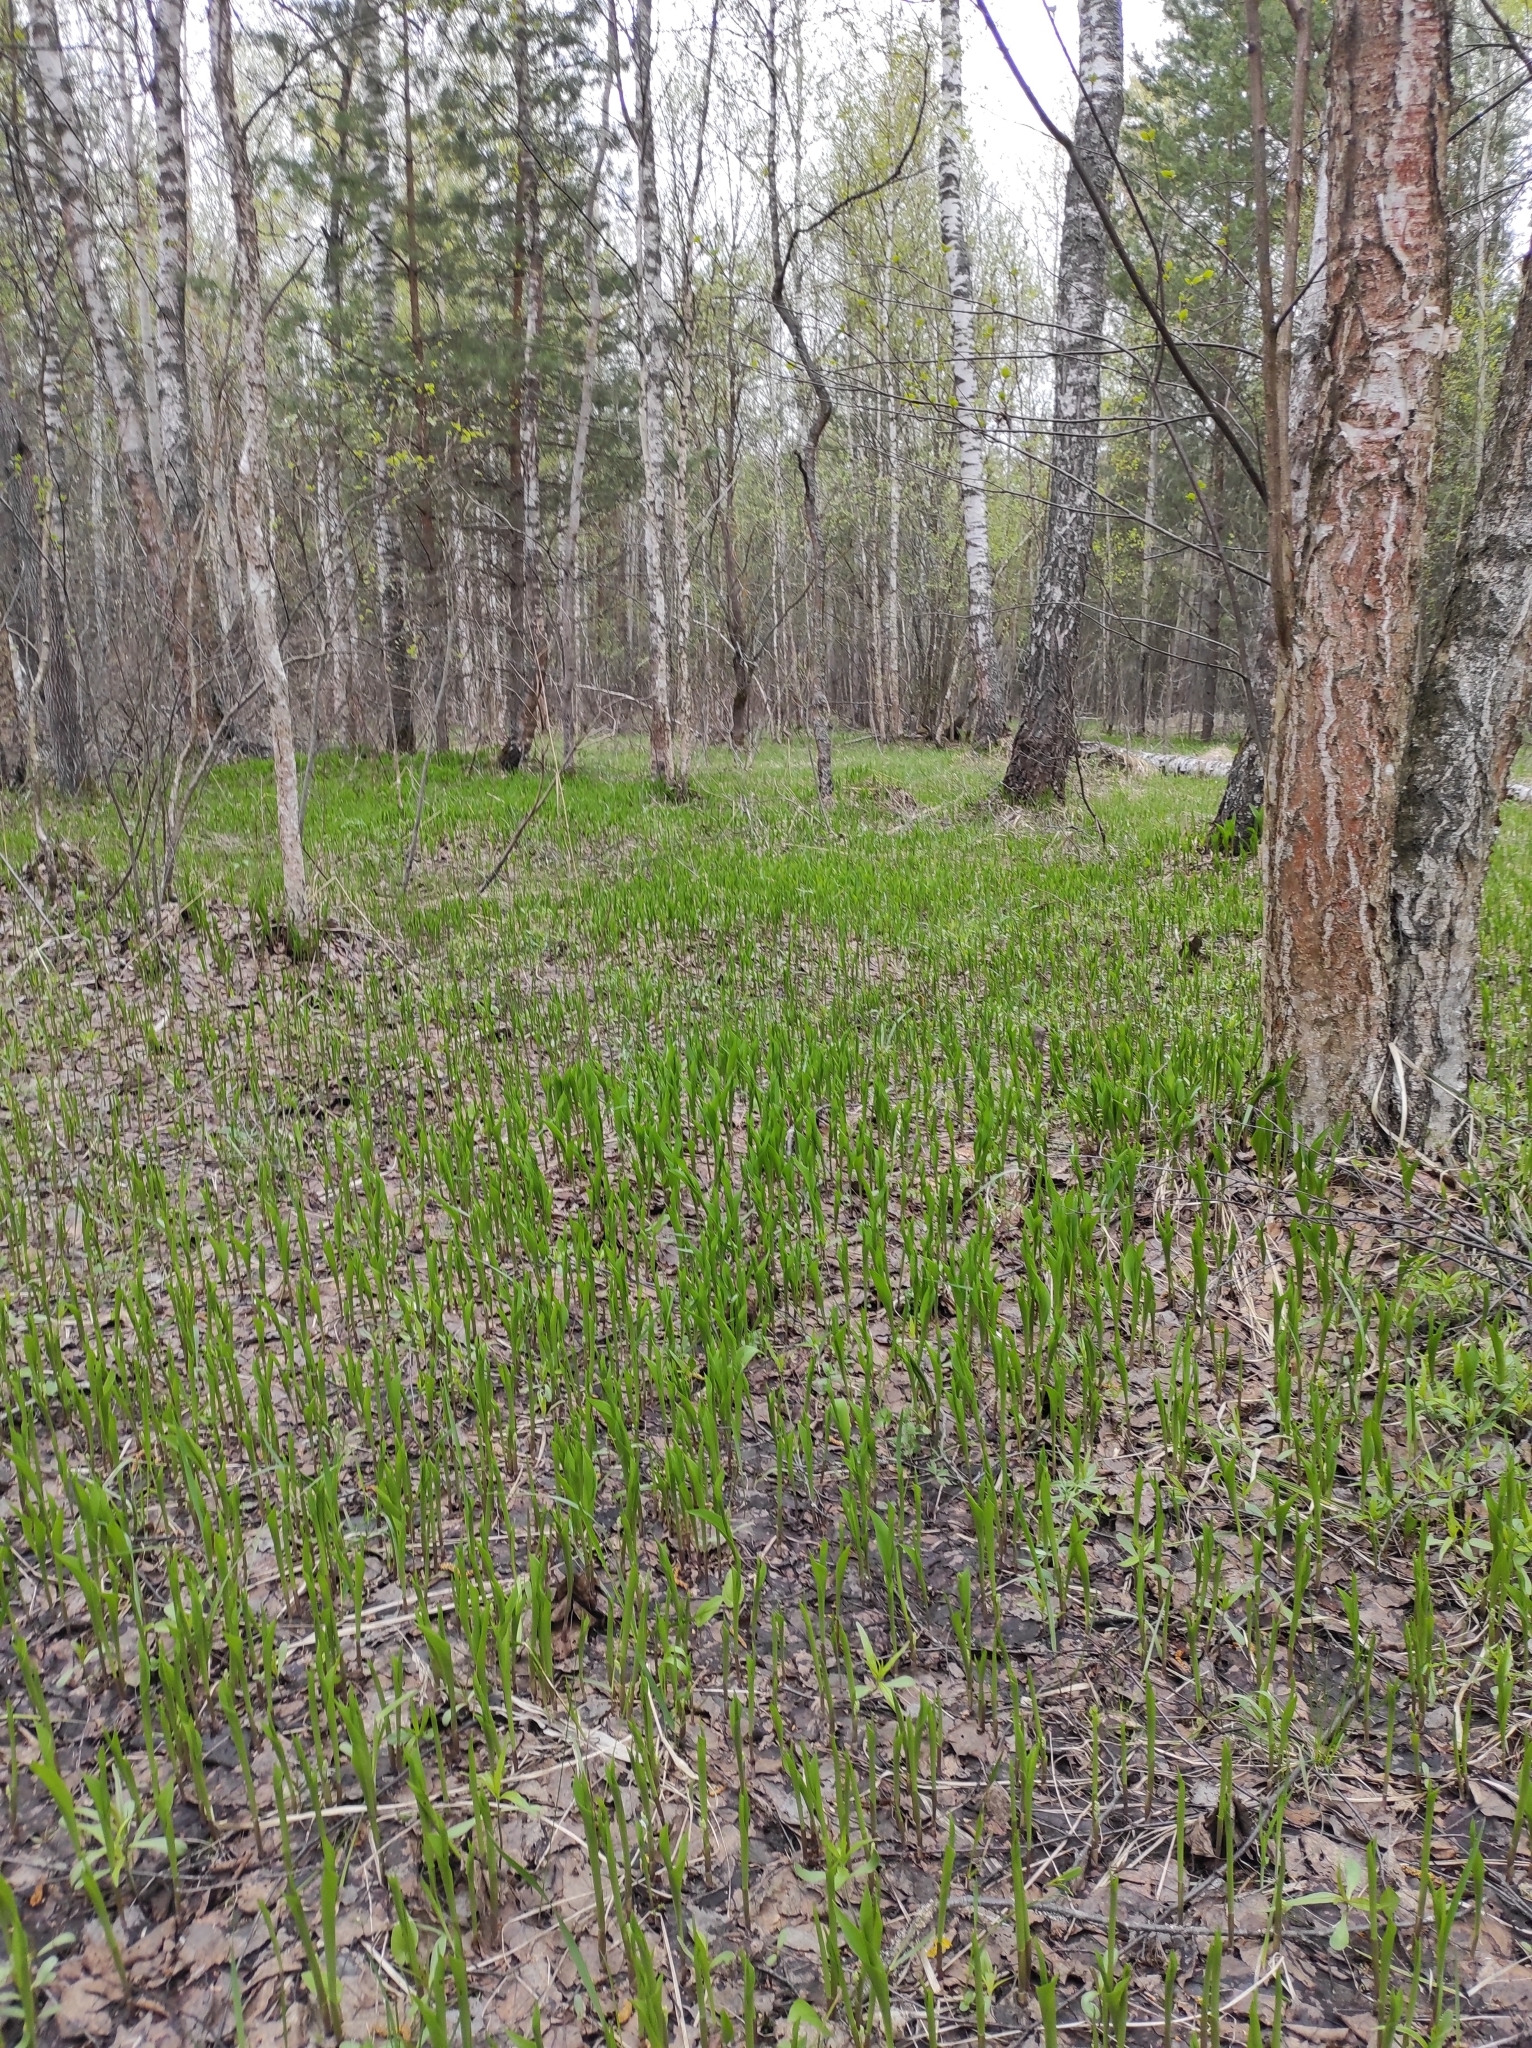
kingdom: Plantae
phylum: Tracheophyta
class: Liliopsida
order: Asparagales
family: Asparagaceae
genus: Convallaria
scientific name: Convallaria majalis
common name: Lily-of-the-valley
